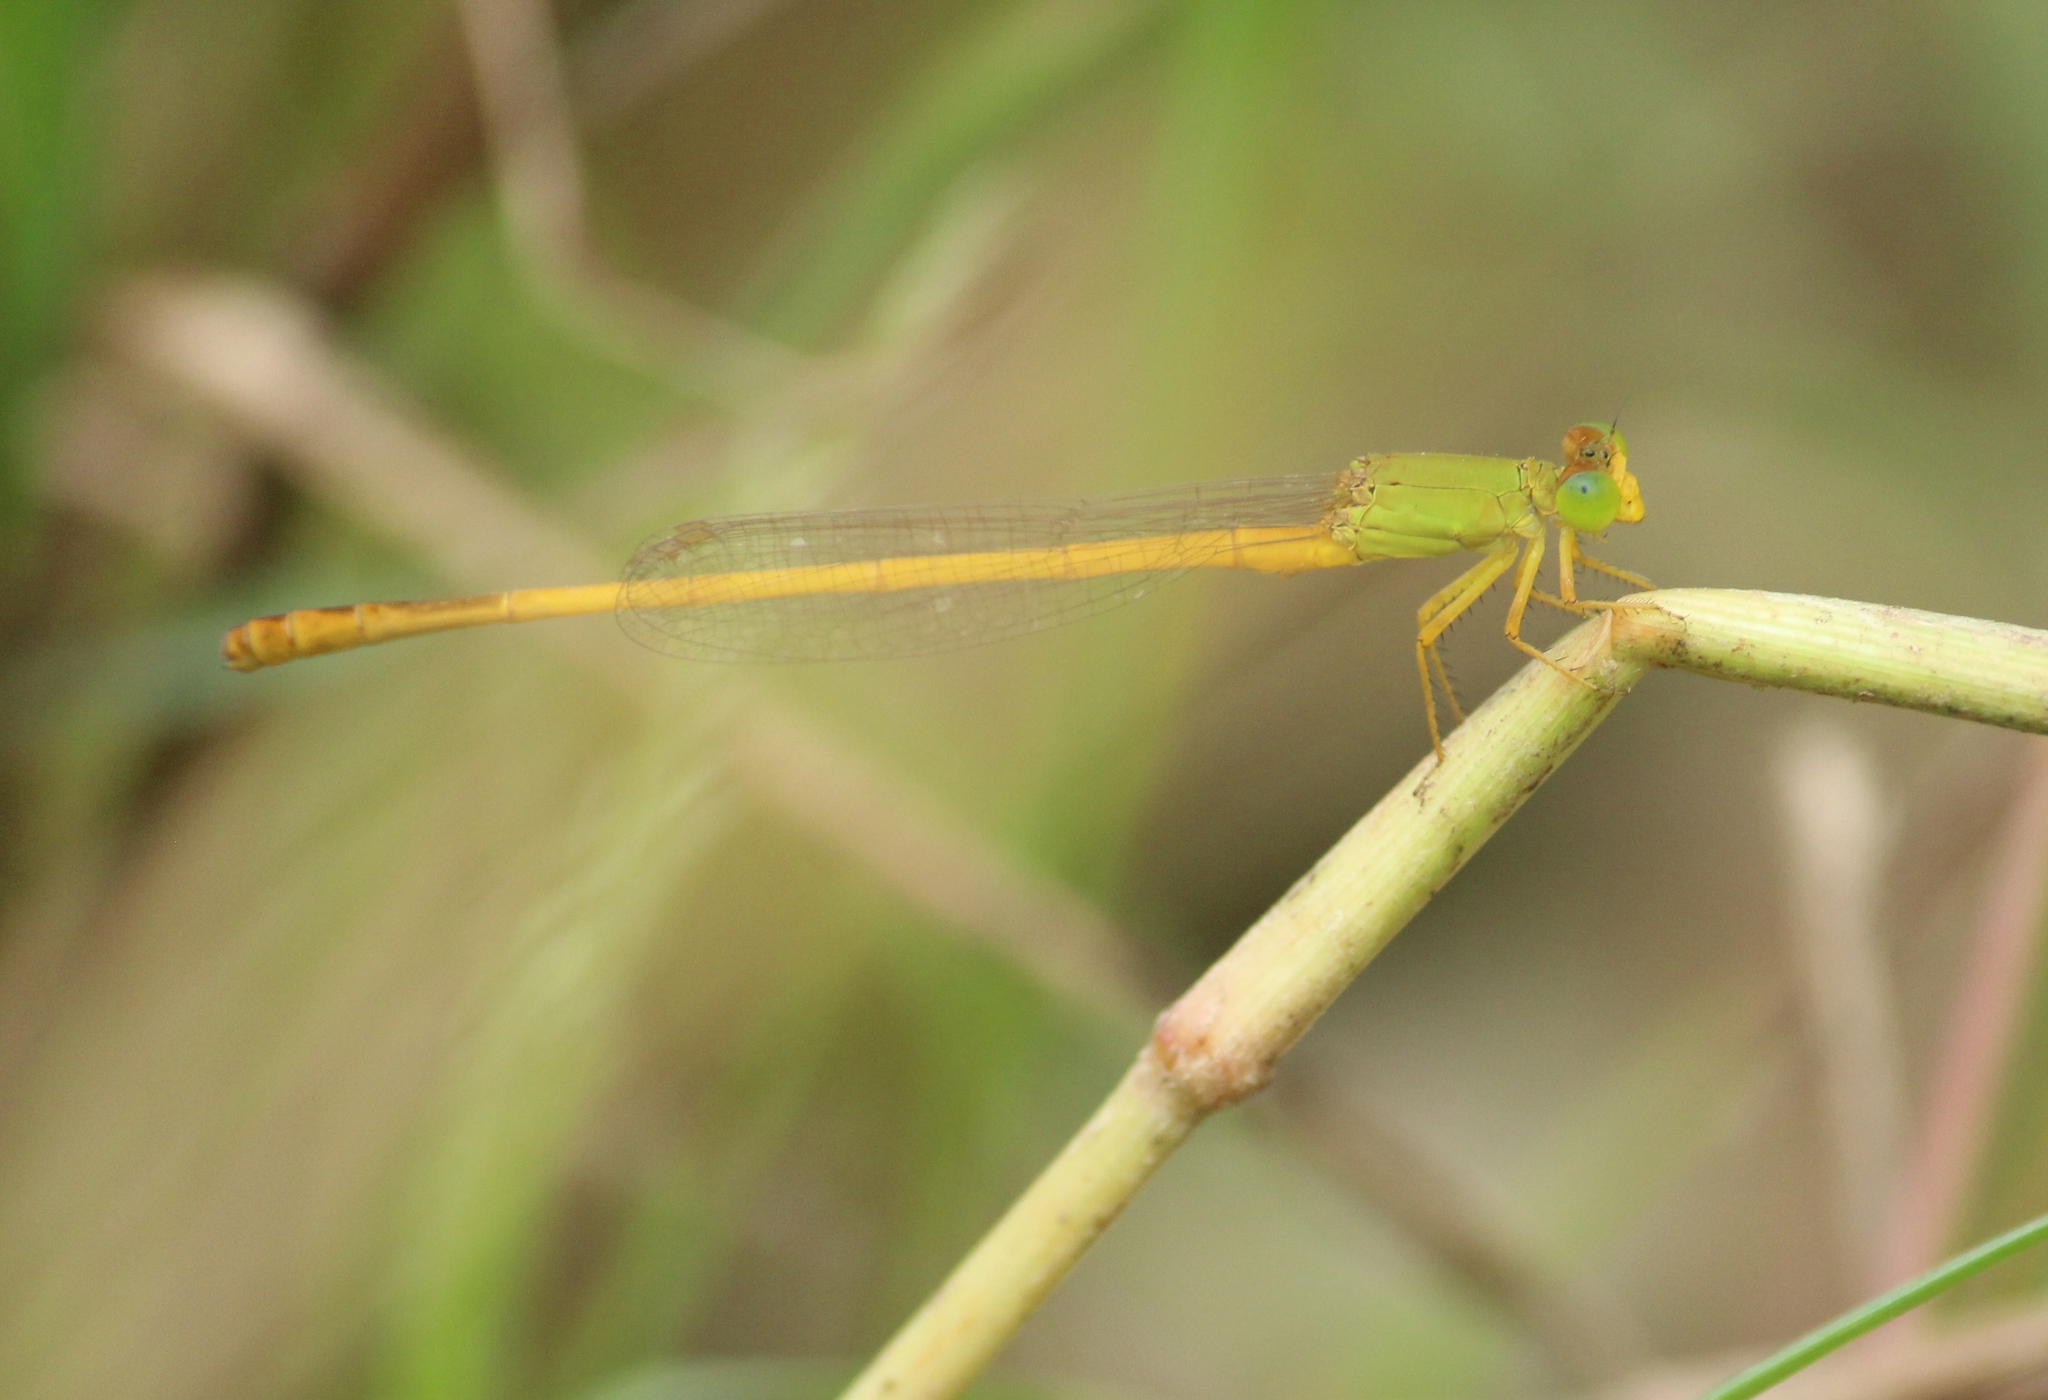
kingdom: Animalia
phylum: Arthropoda
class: Insecta
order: Odonata
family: Coenagrionidae
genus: Ceriagrion
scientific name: Ceriagrion coromandelianum
